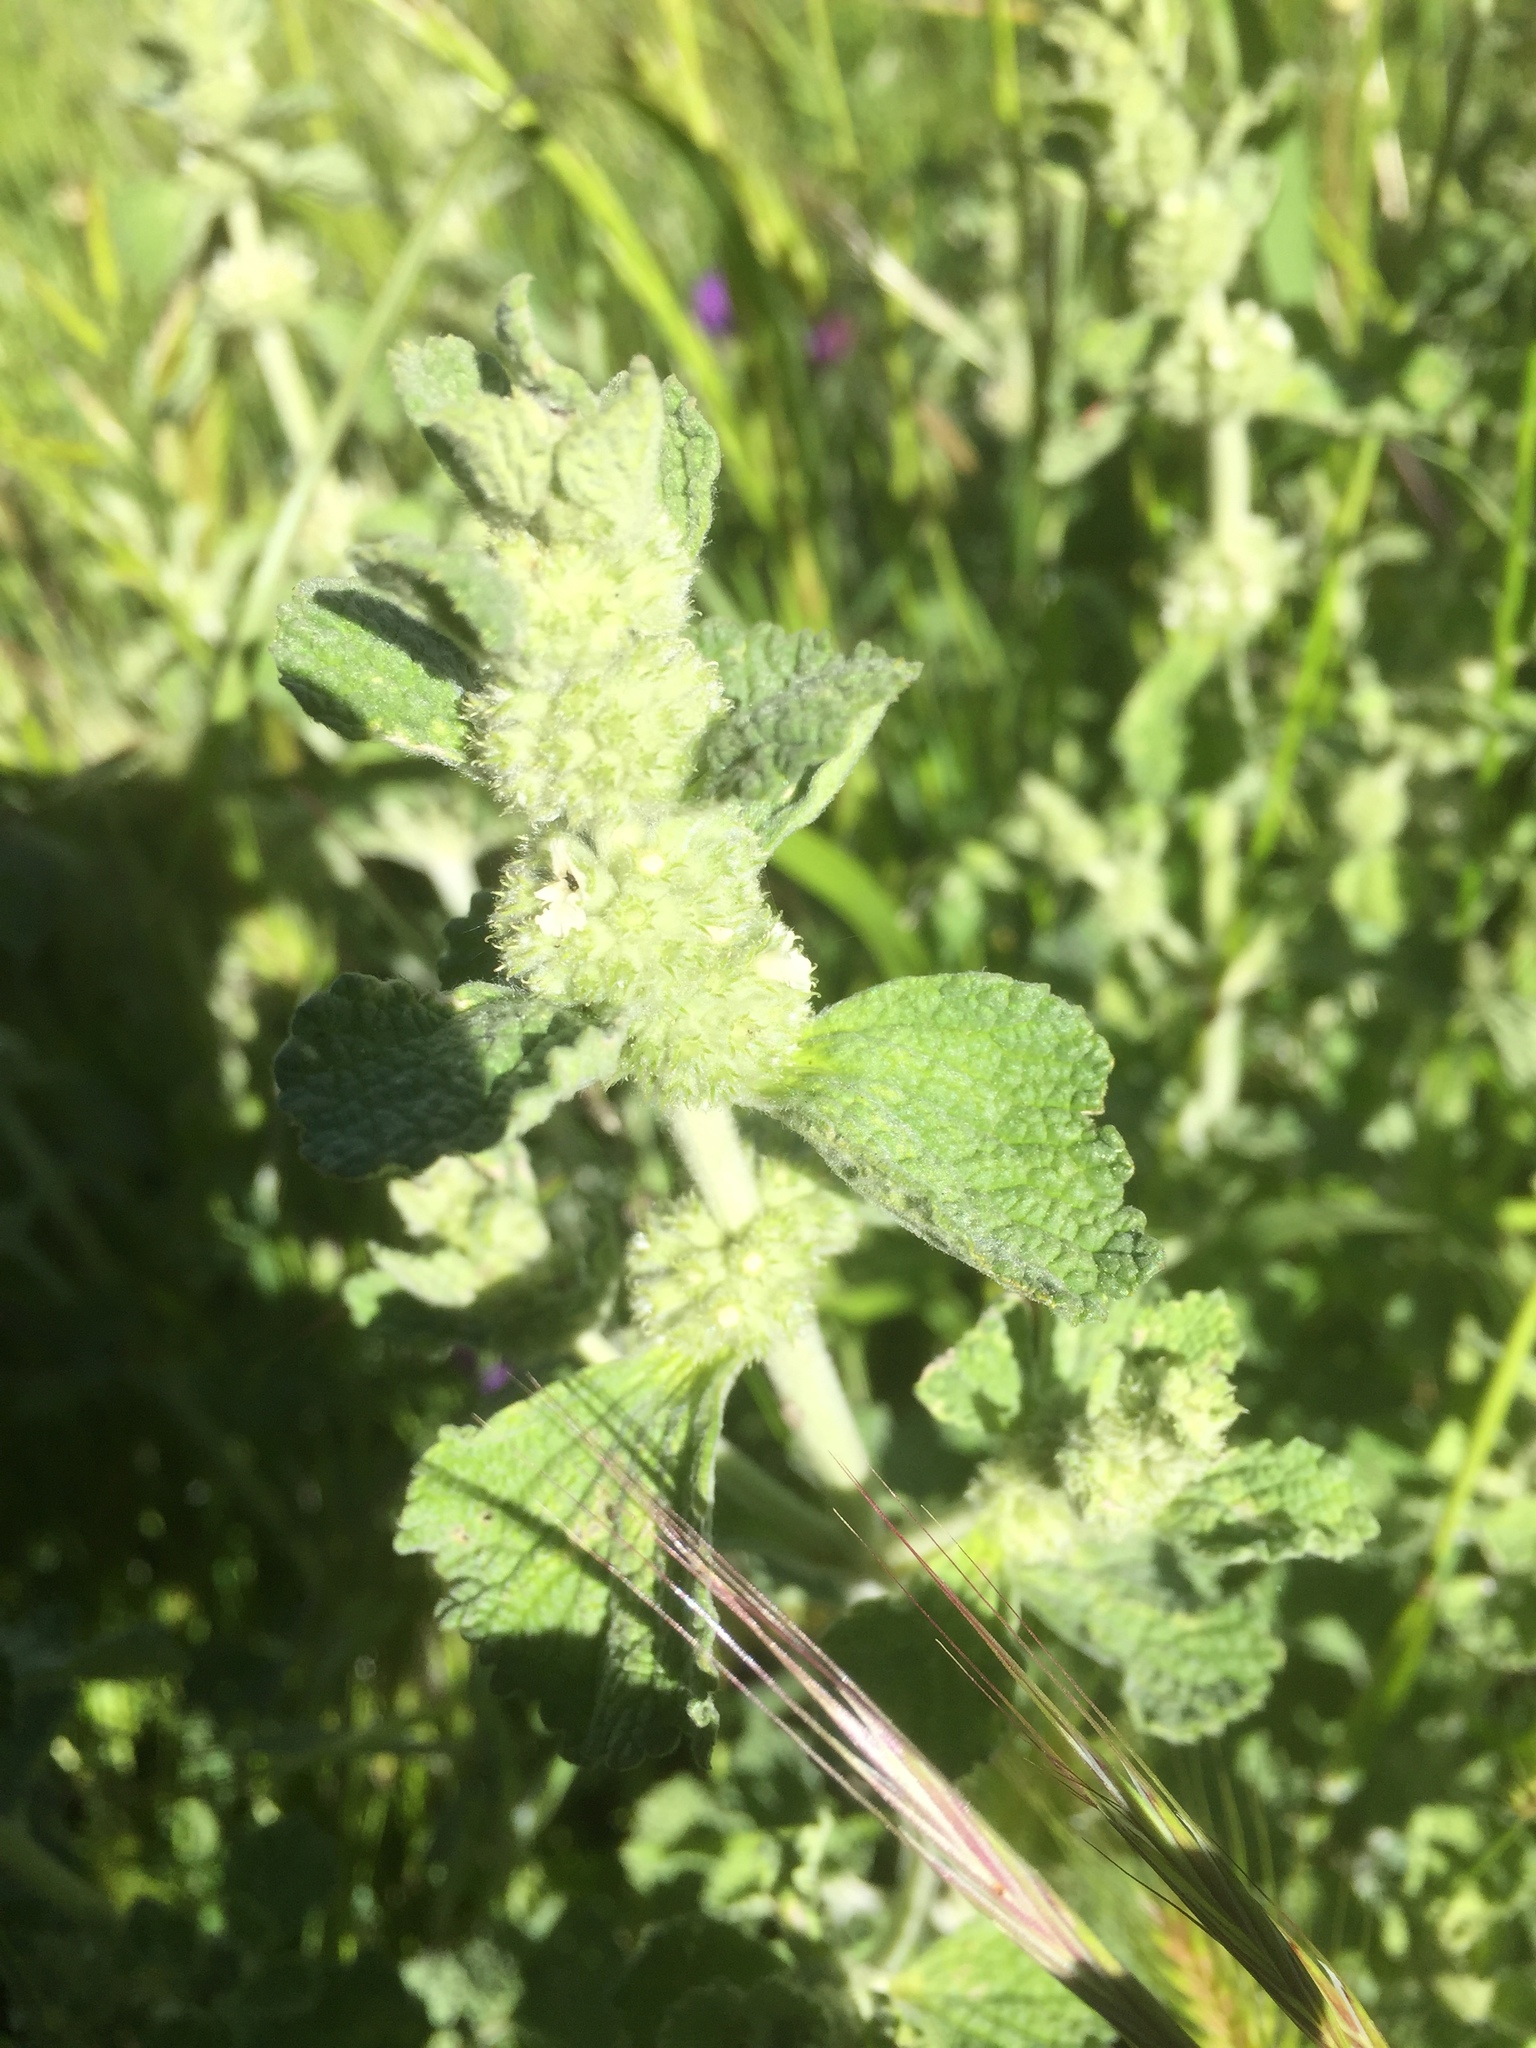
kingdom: Plantae
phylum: Tracheophyta
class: Magnoliopsida
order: Lamiales
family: Lamiaceae
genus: Marrubium
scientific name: Marrubium vulgare
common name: Horehound
